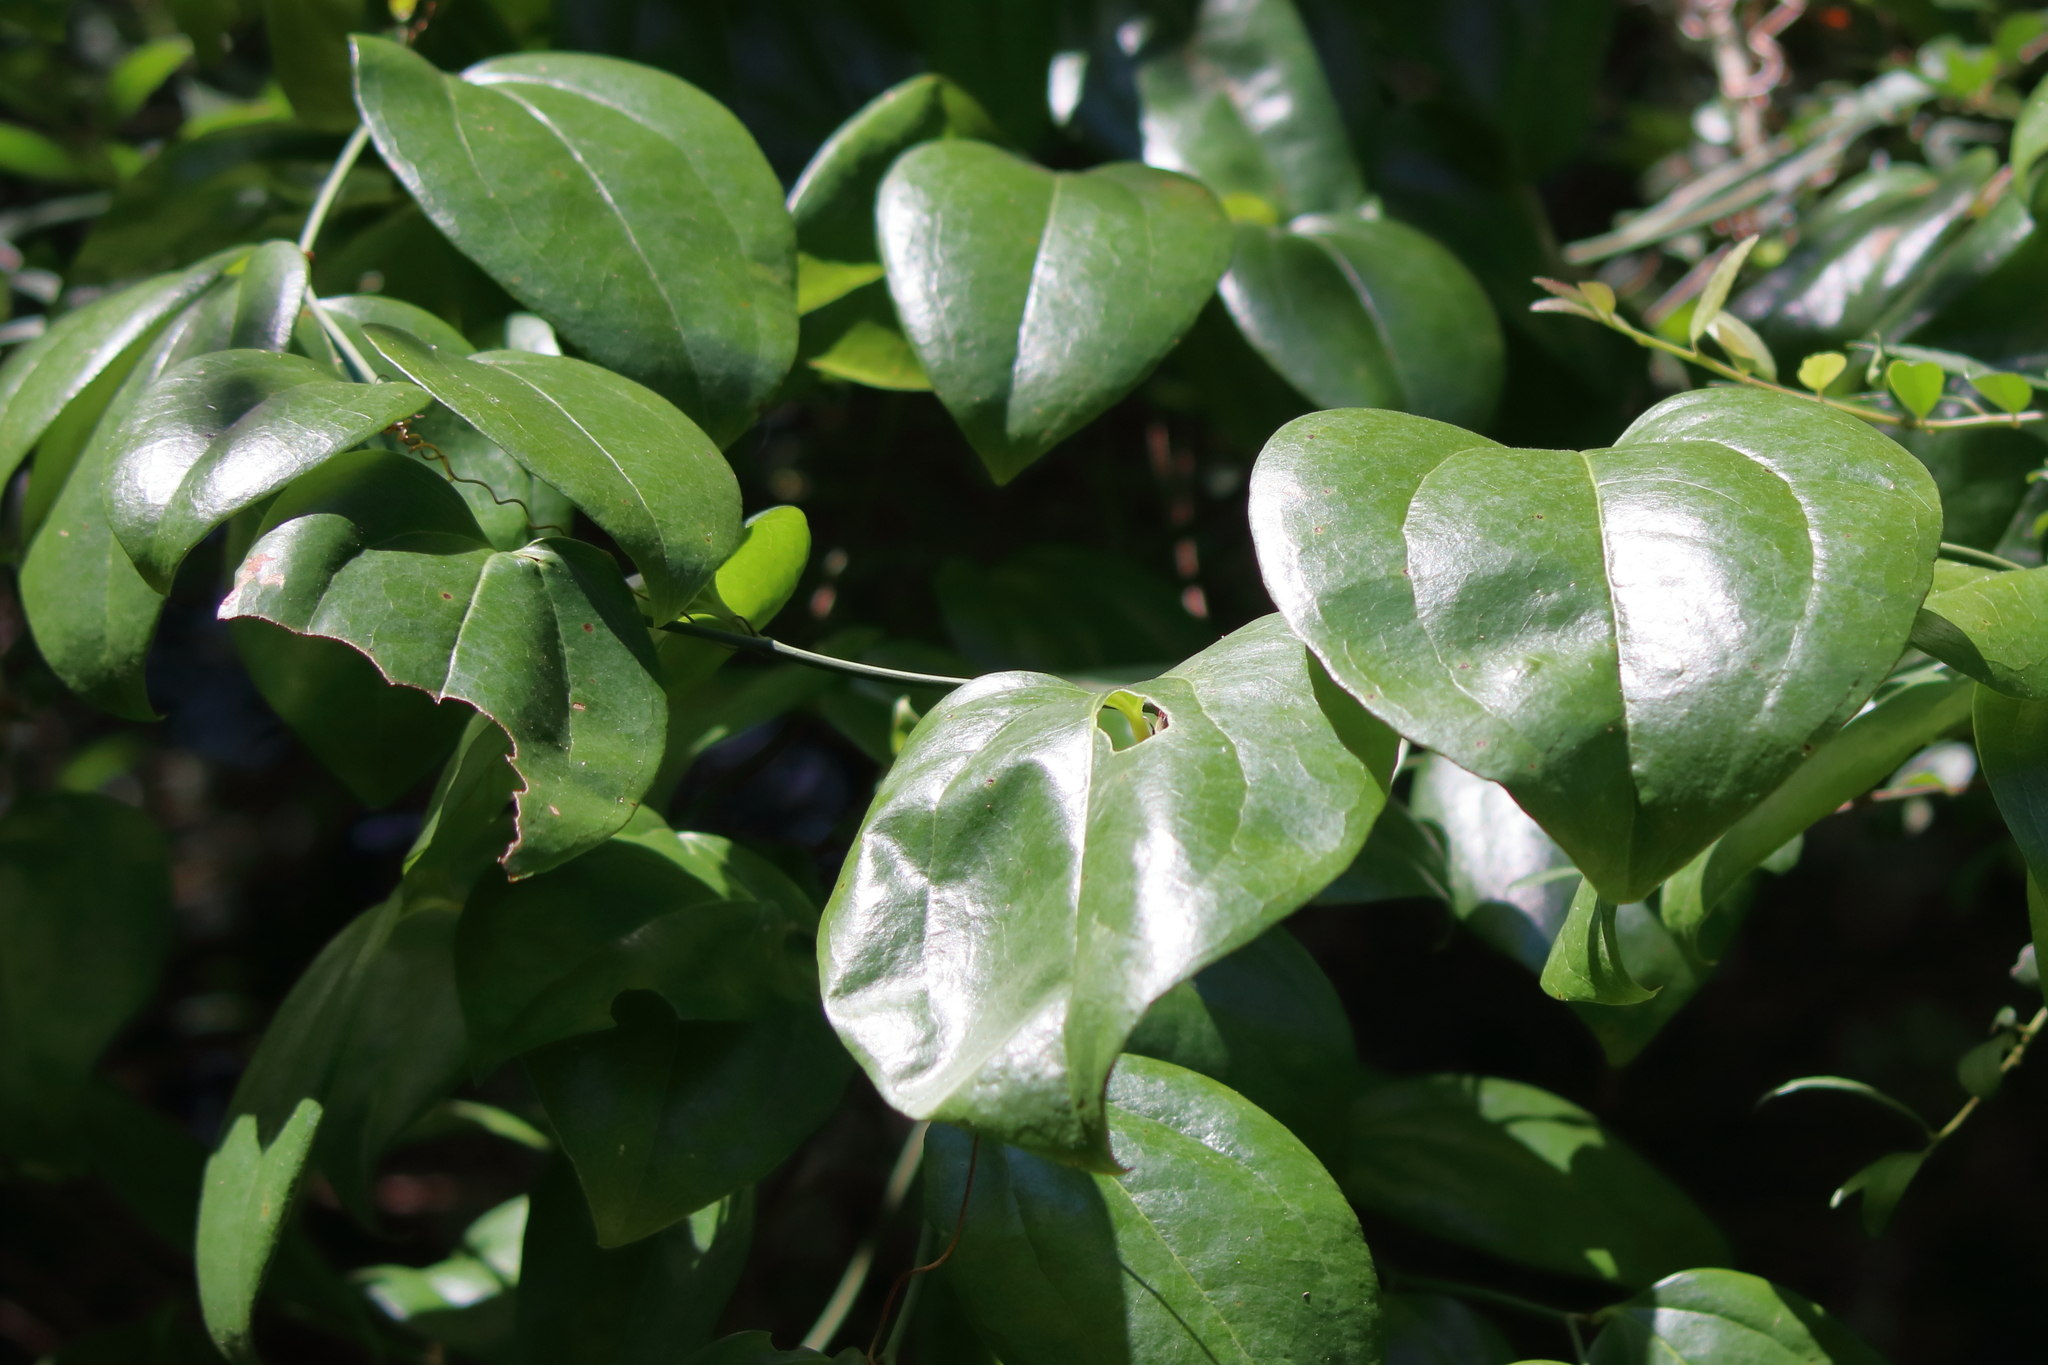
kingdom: Plantae
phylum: Tracheophyta
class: Liliopsida
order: Liliales
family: Smilacaceae
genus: Smilax
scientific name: Smilax rotundifolia
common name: Bullbriar
